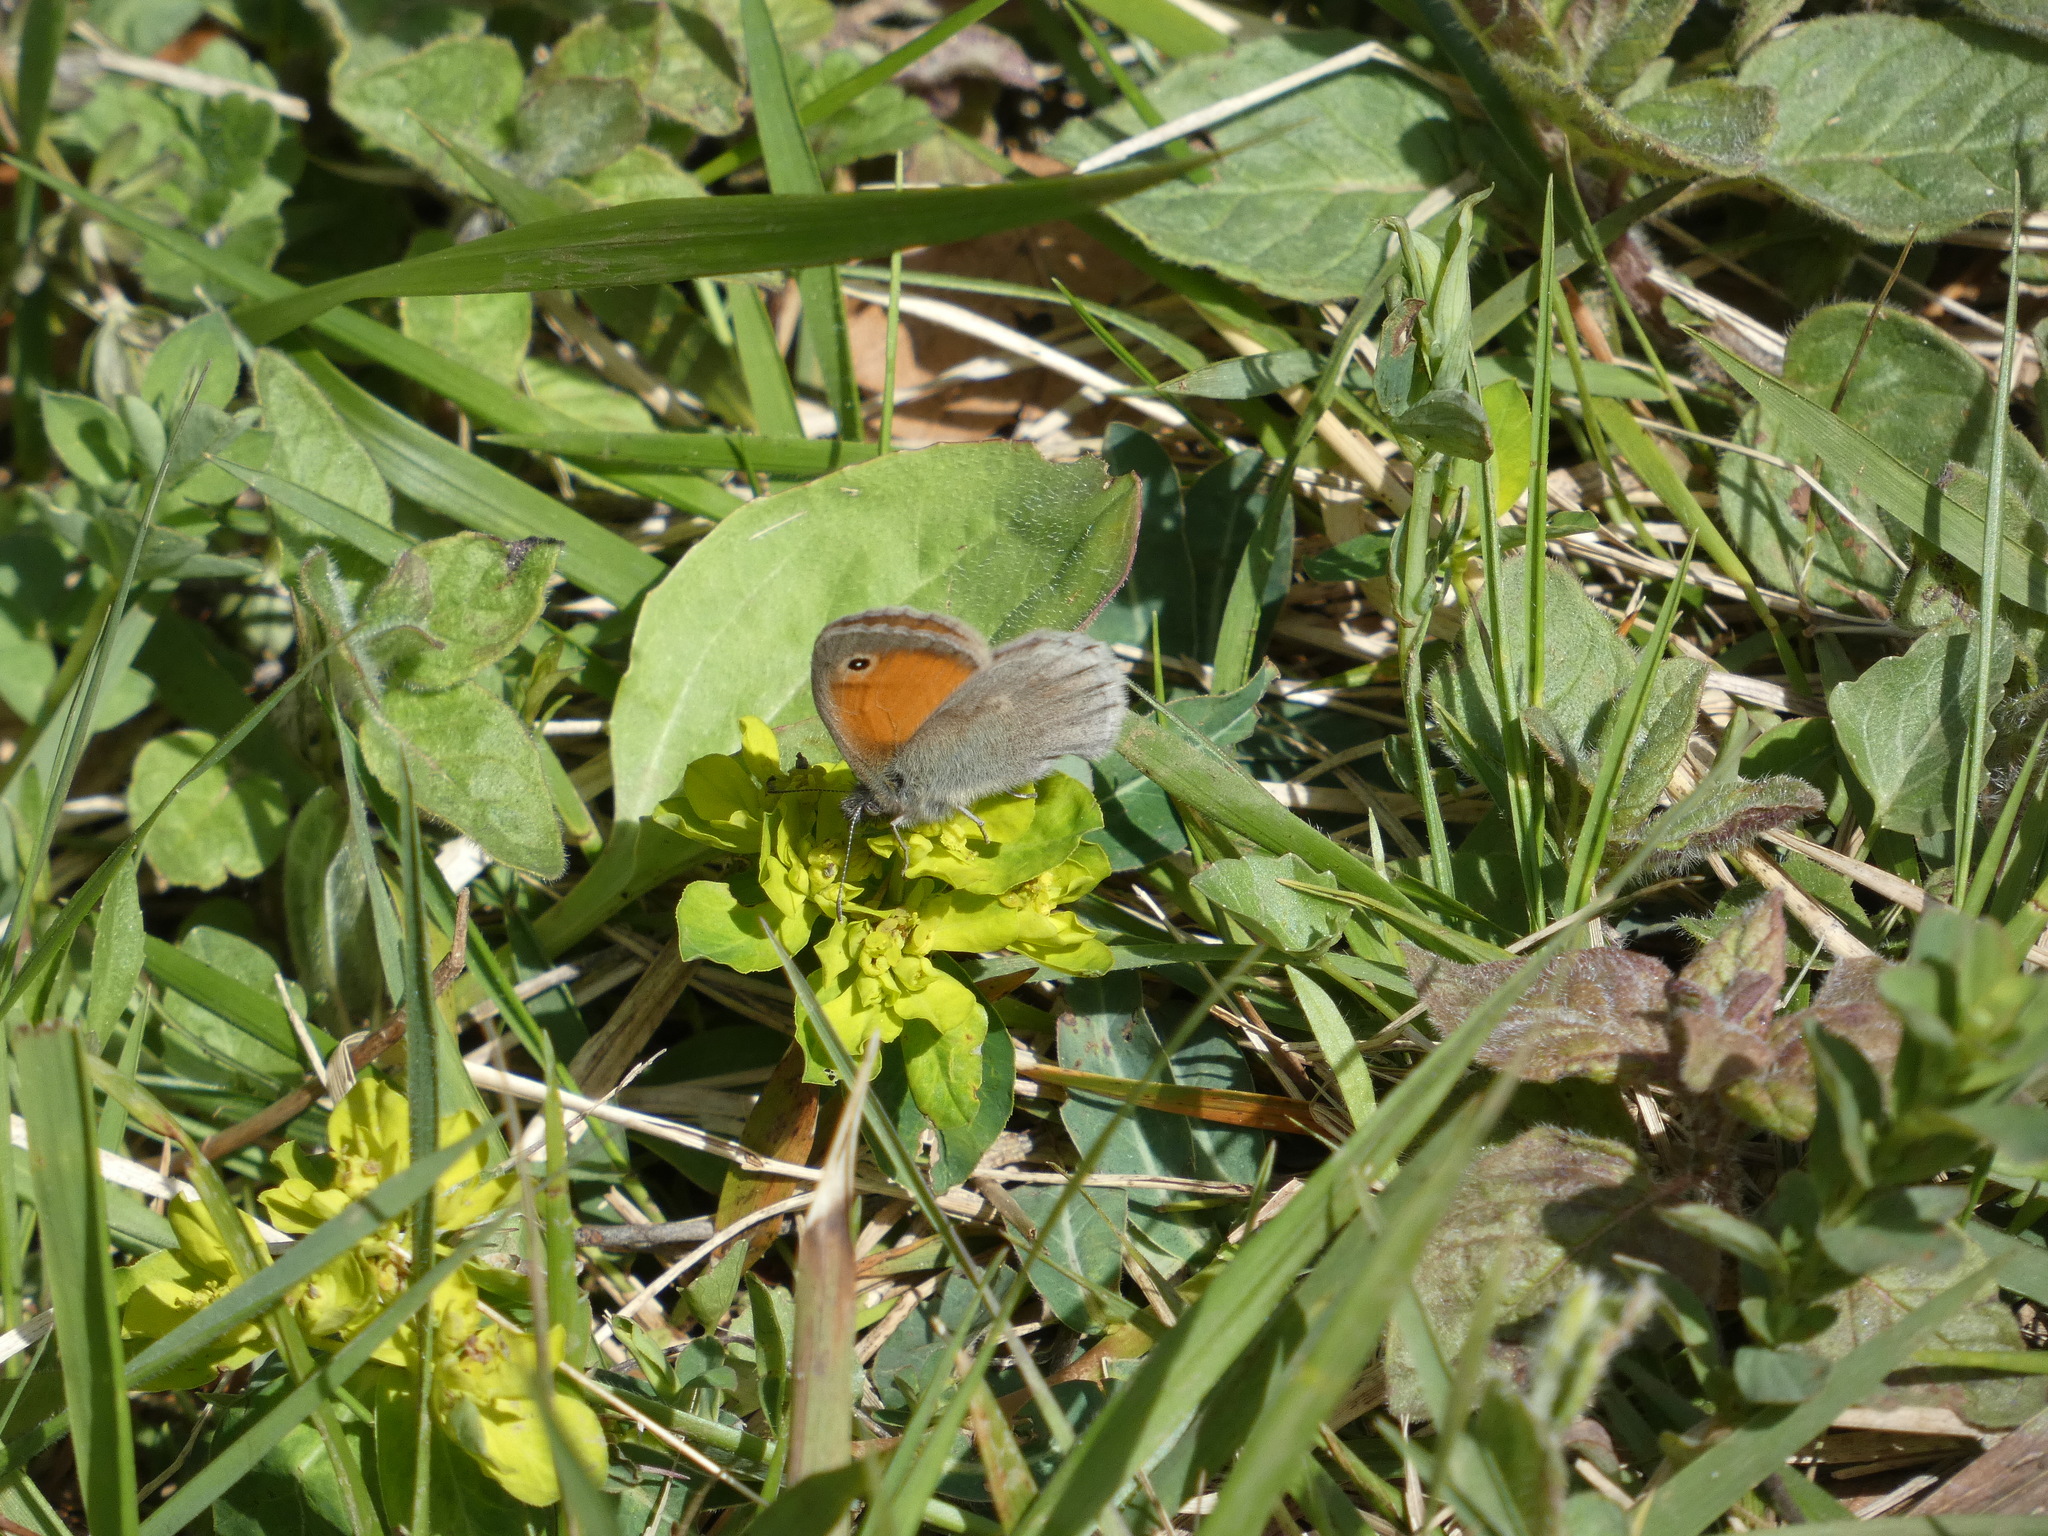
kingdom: Animalia
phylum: Arthropoda
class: Insecta
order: Lepidoptera
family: Nymphalidae
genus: Coenonympha
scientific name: Coenonympha pamphilus
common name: Small heath
